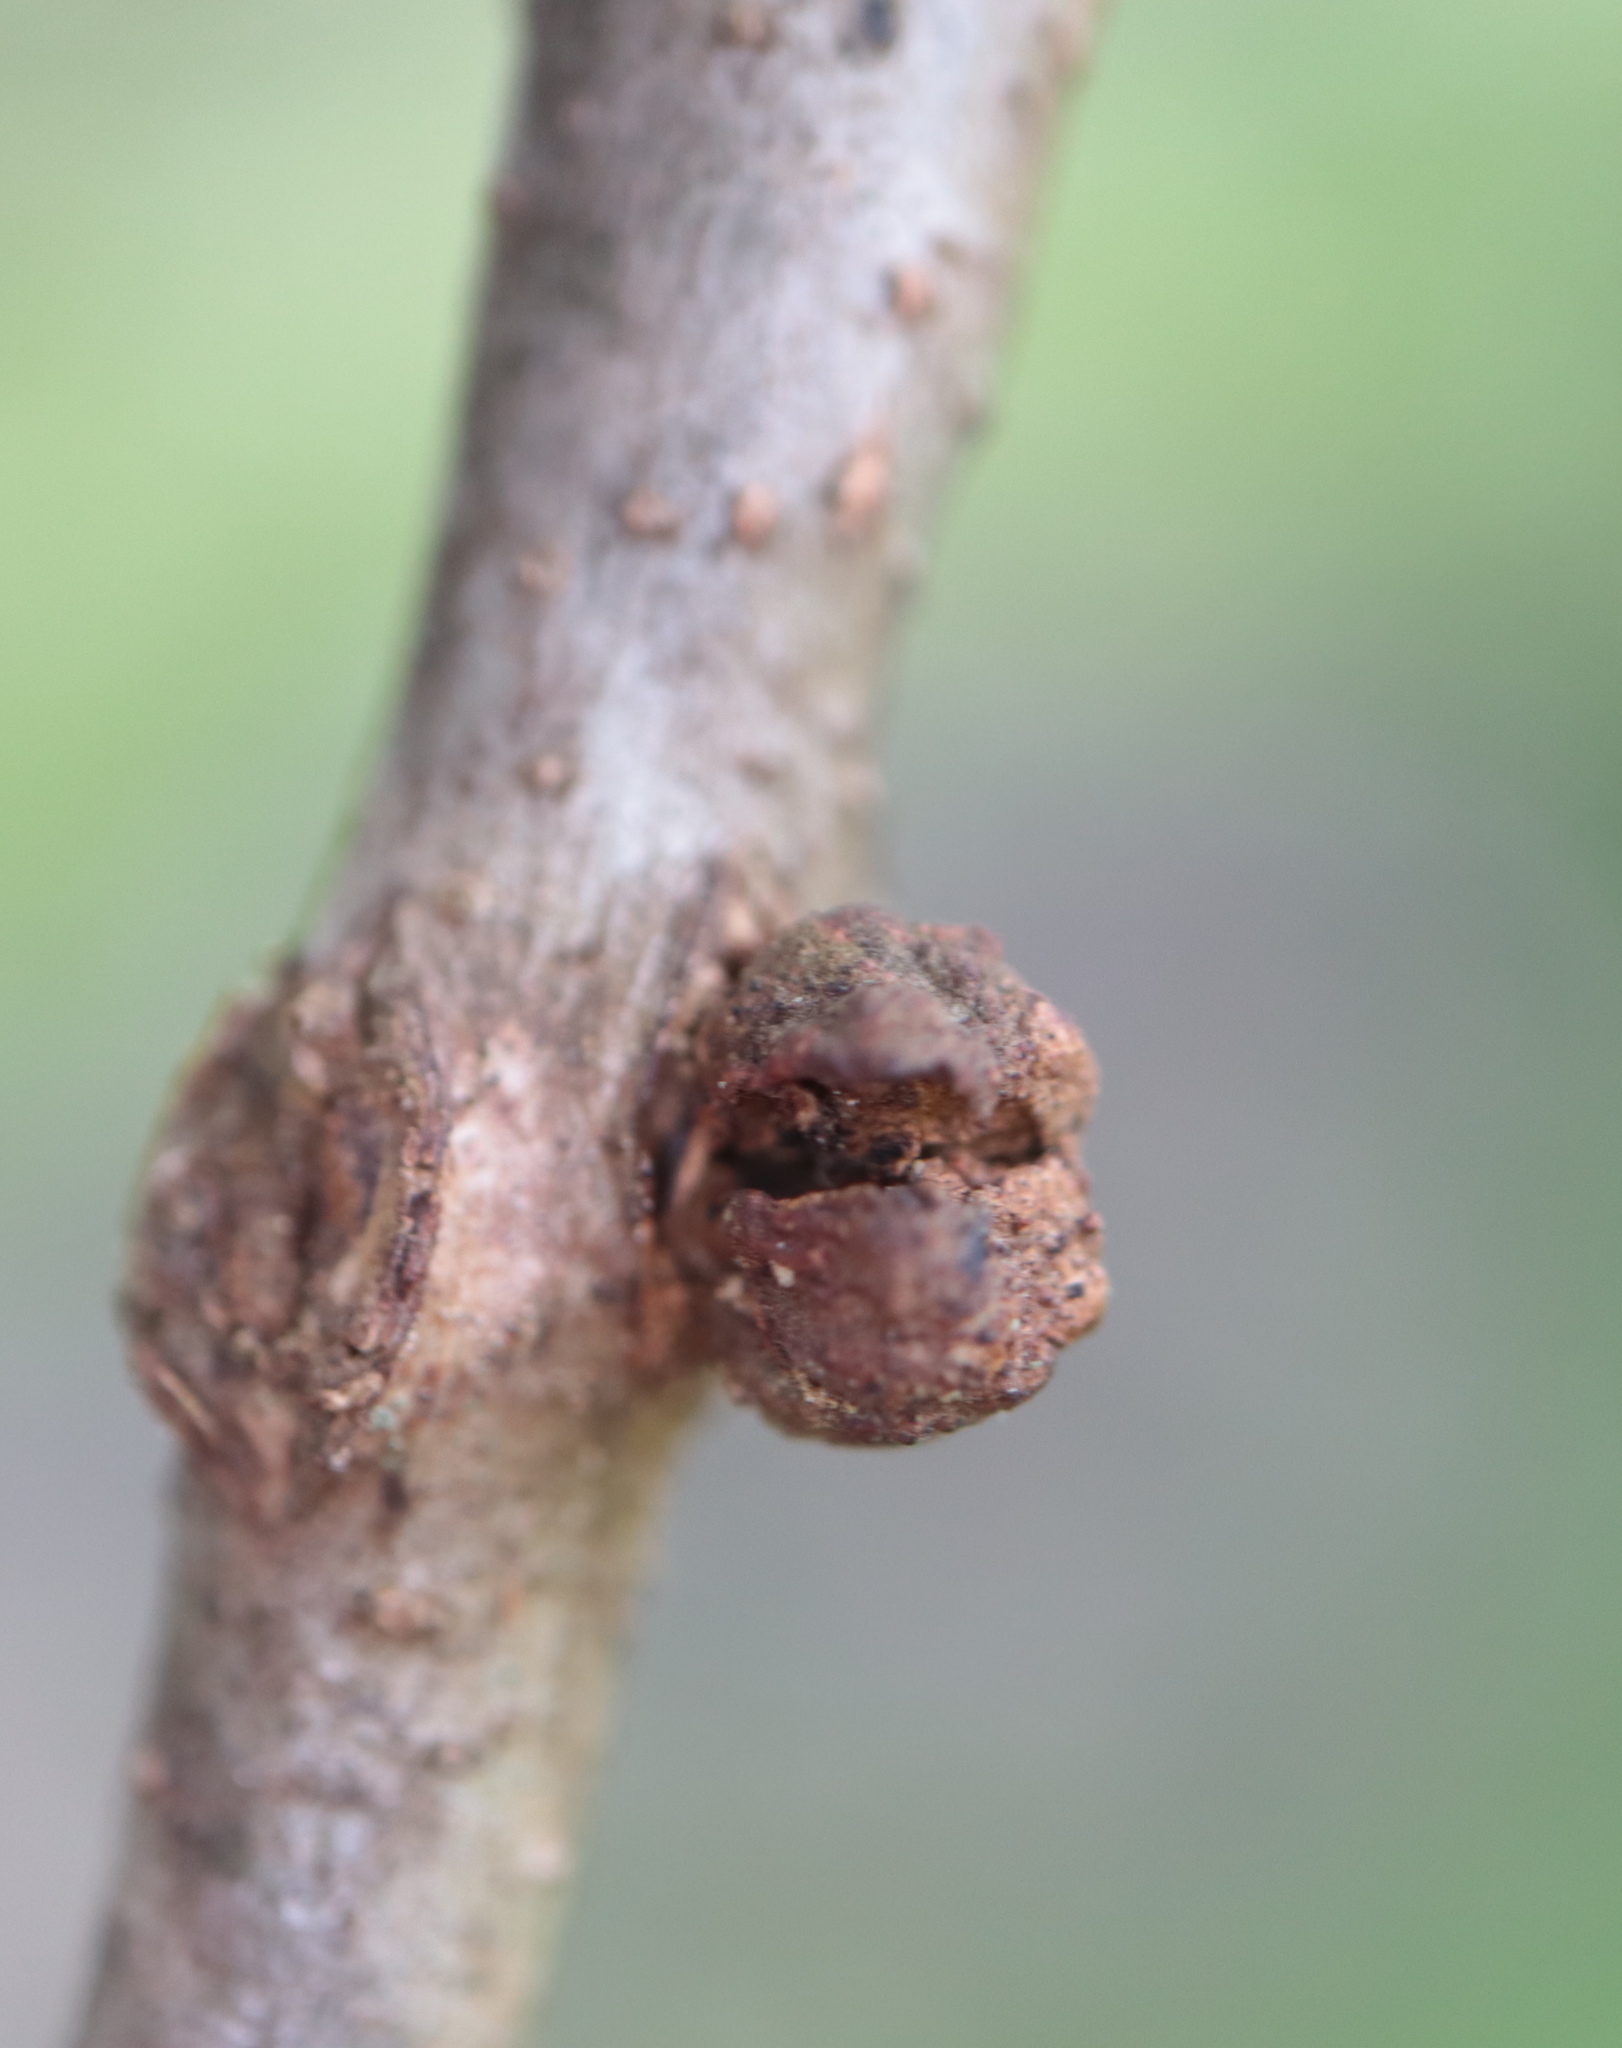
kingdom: Animalia
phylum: Arthropoda
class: Insecta
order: Hymenoptera
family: Cynipidae
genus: Disholcaspis
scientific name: Disholcaspis
